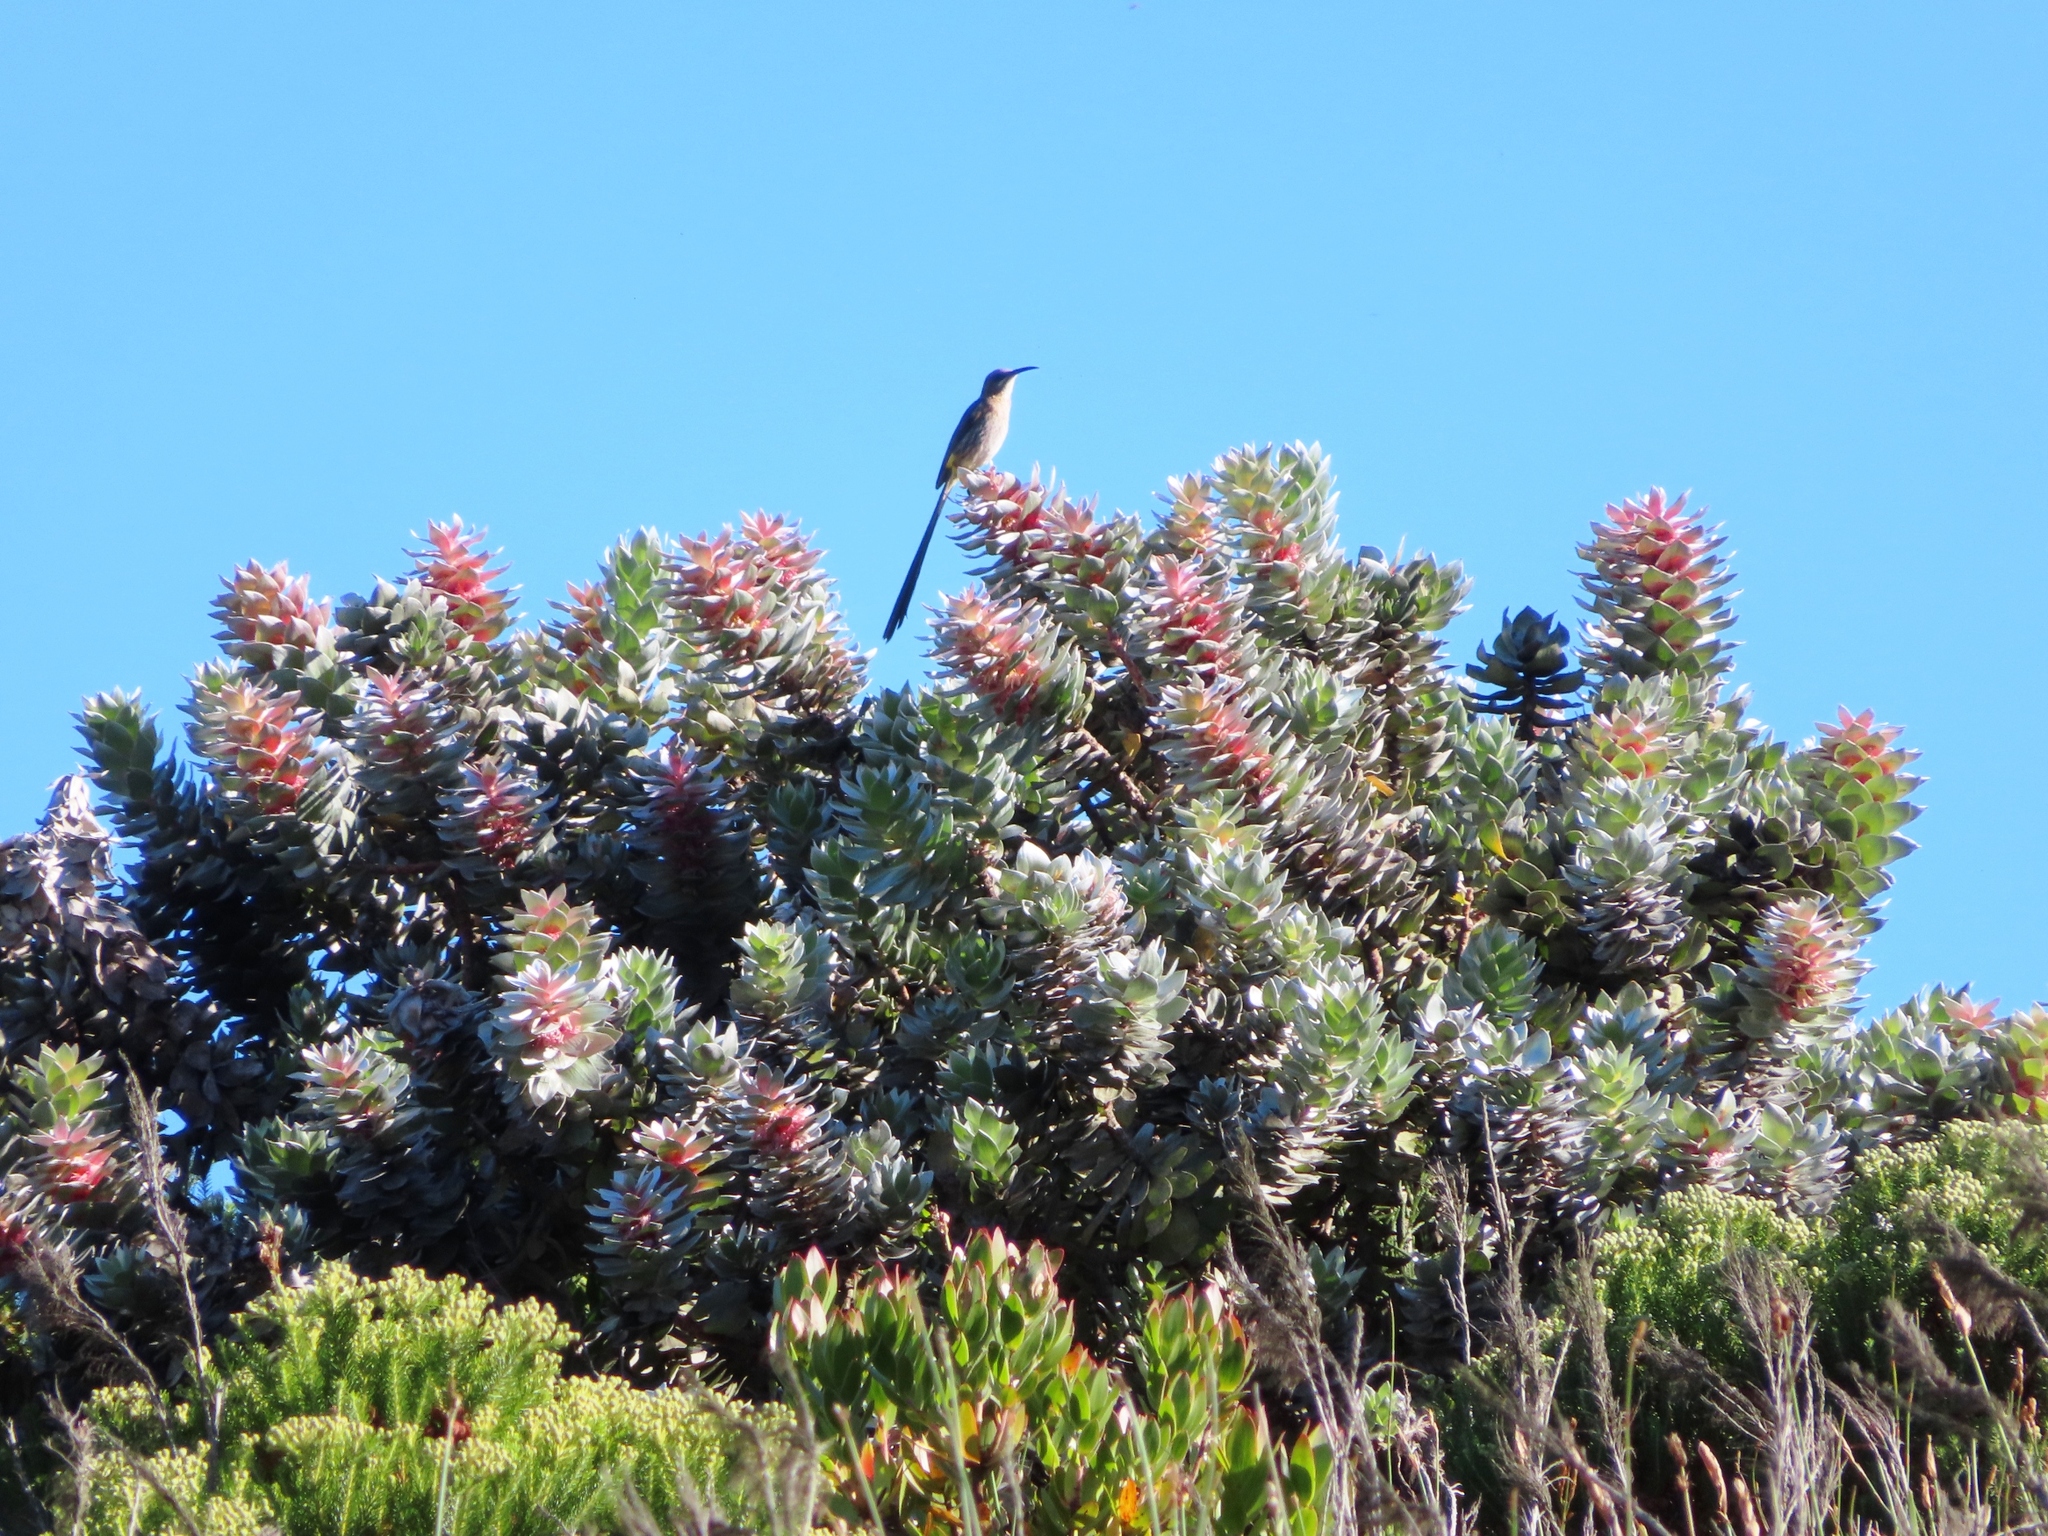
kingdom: Animalia
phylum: Chordata
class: Aves
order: Passeriformes
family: Promeropidae
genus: Promerops
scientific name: Promerops cafer
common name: Cape sugarbird
